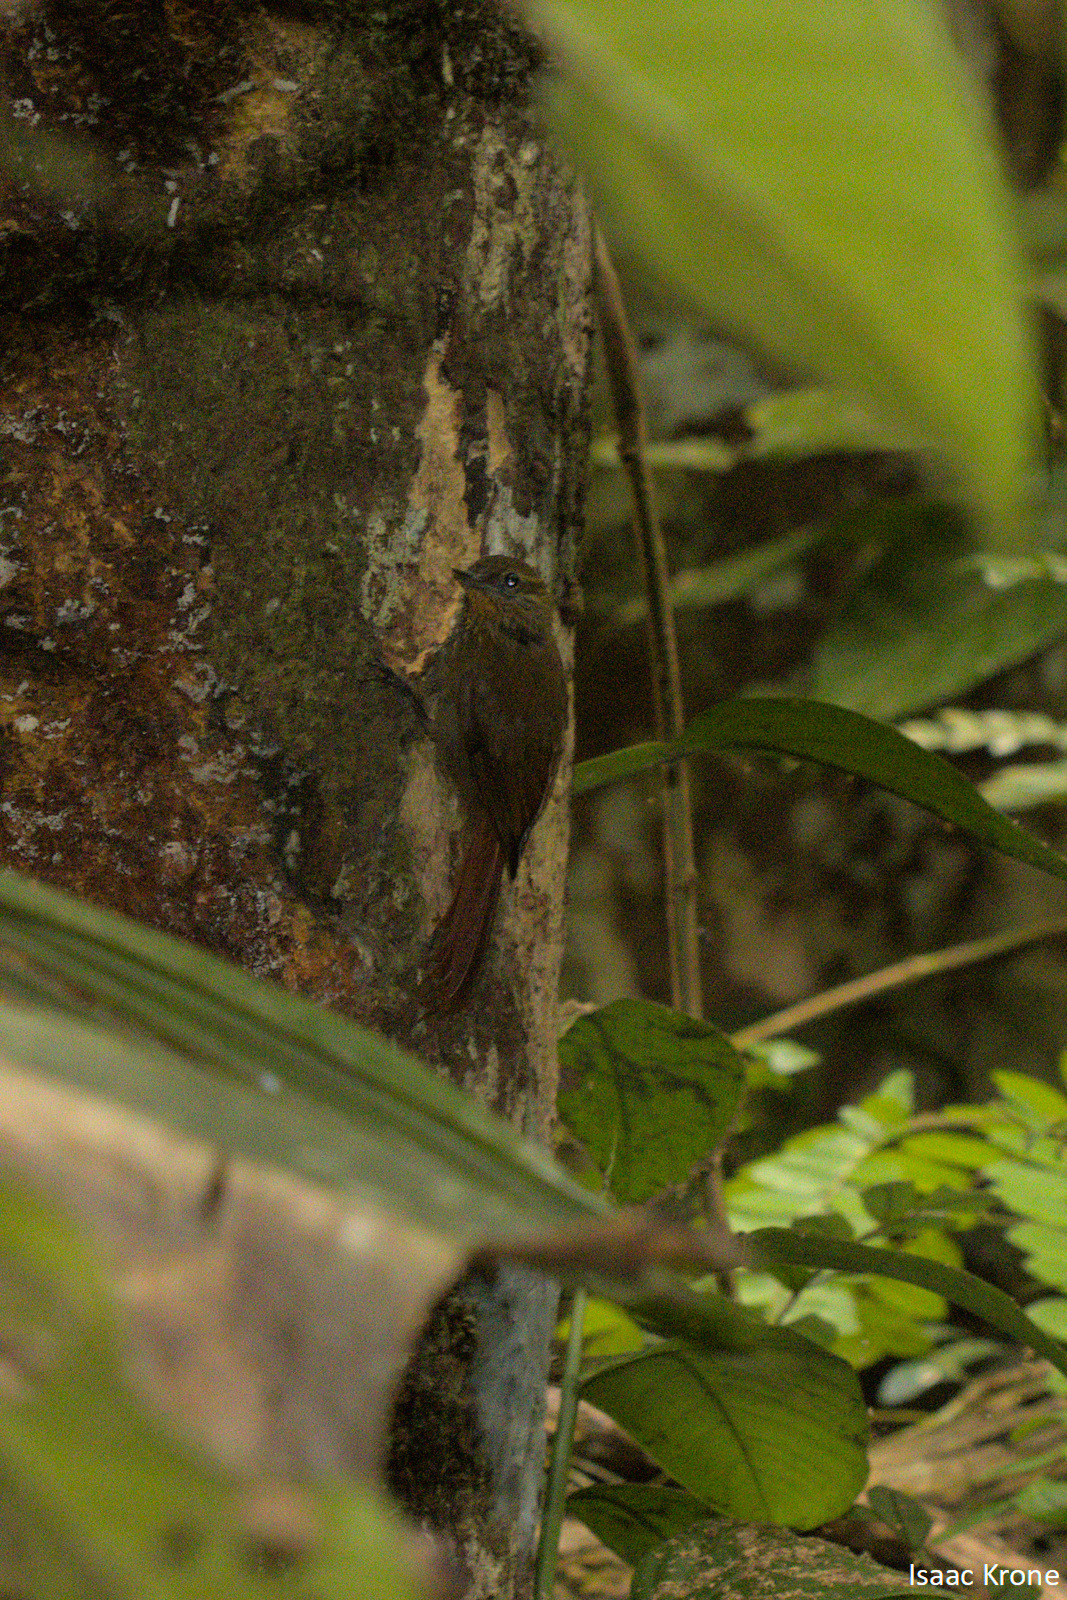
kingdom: Animalia
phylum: Chordata
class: Aves
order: Passeriformes
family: Furnariidae
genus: Glyphorynchus
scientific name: Glyphorynchus spirurus
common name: Wedge-billed woodcreeper
